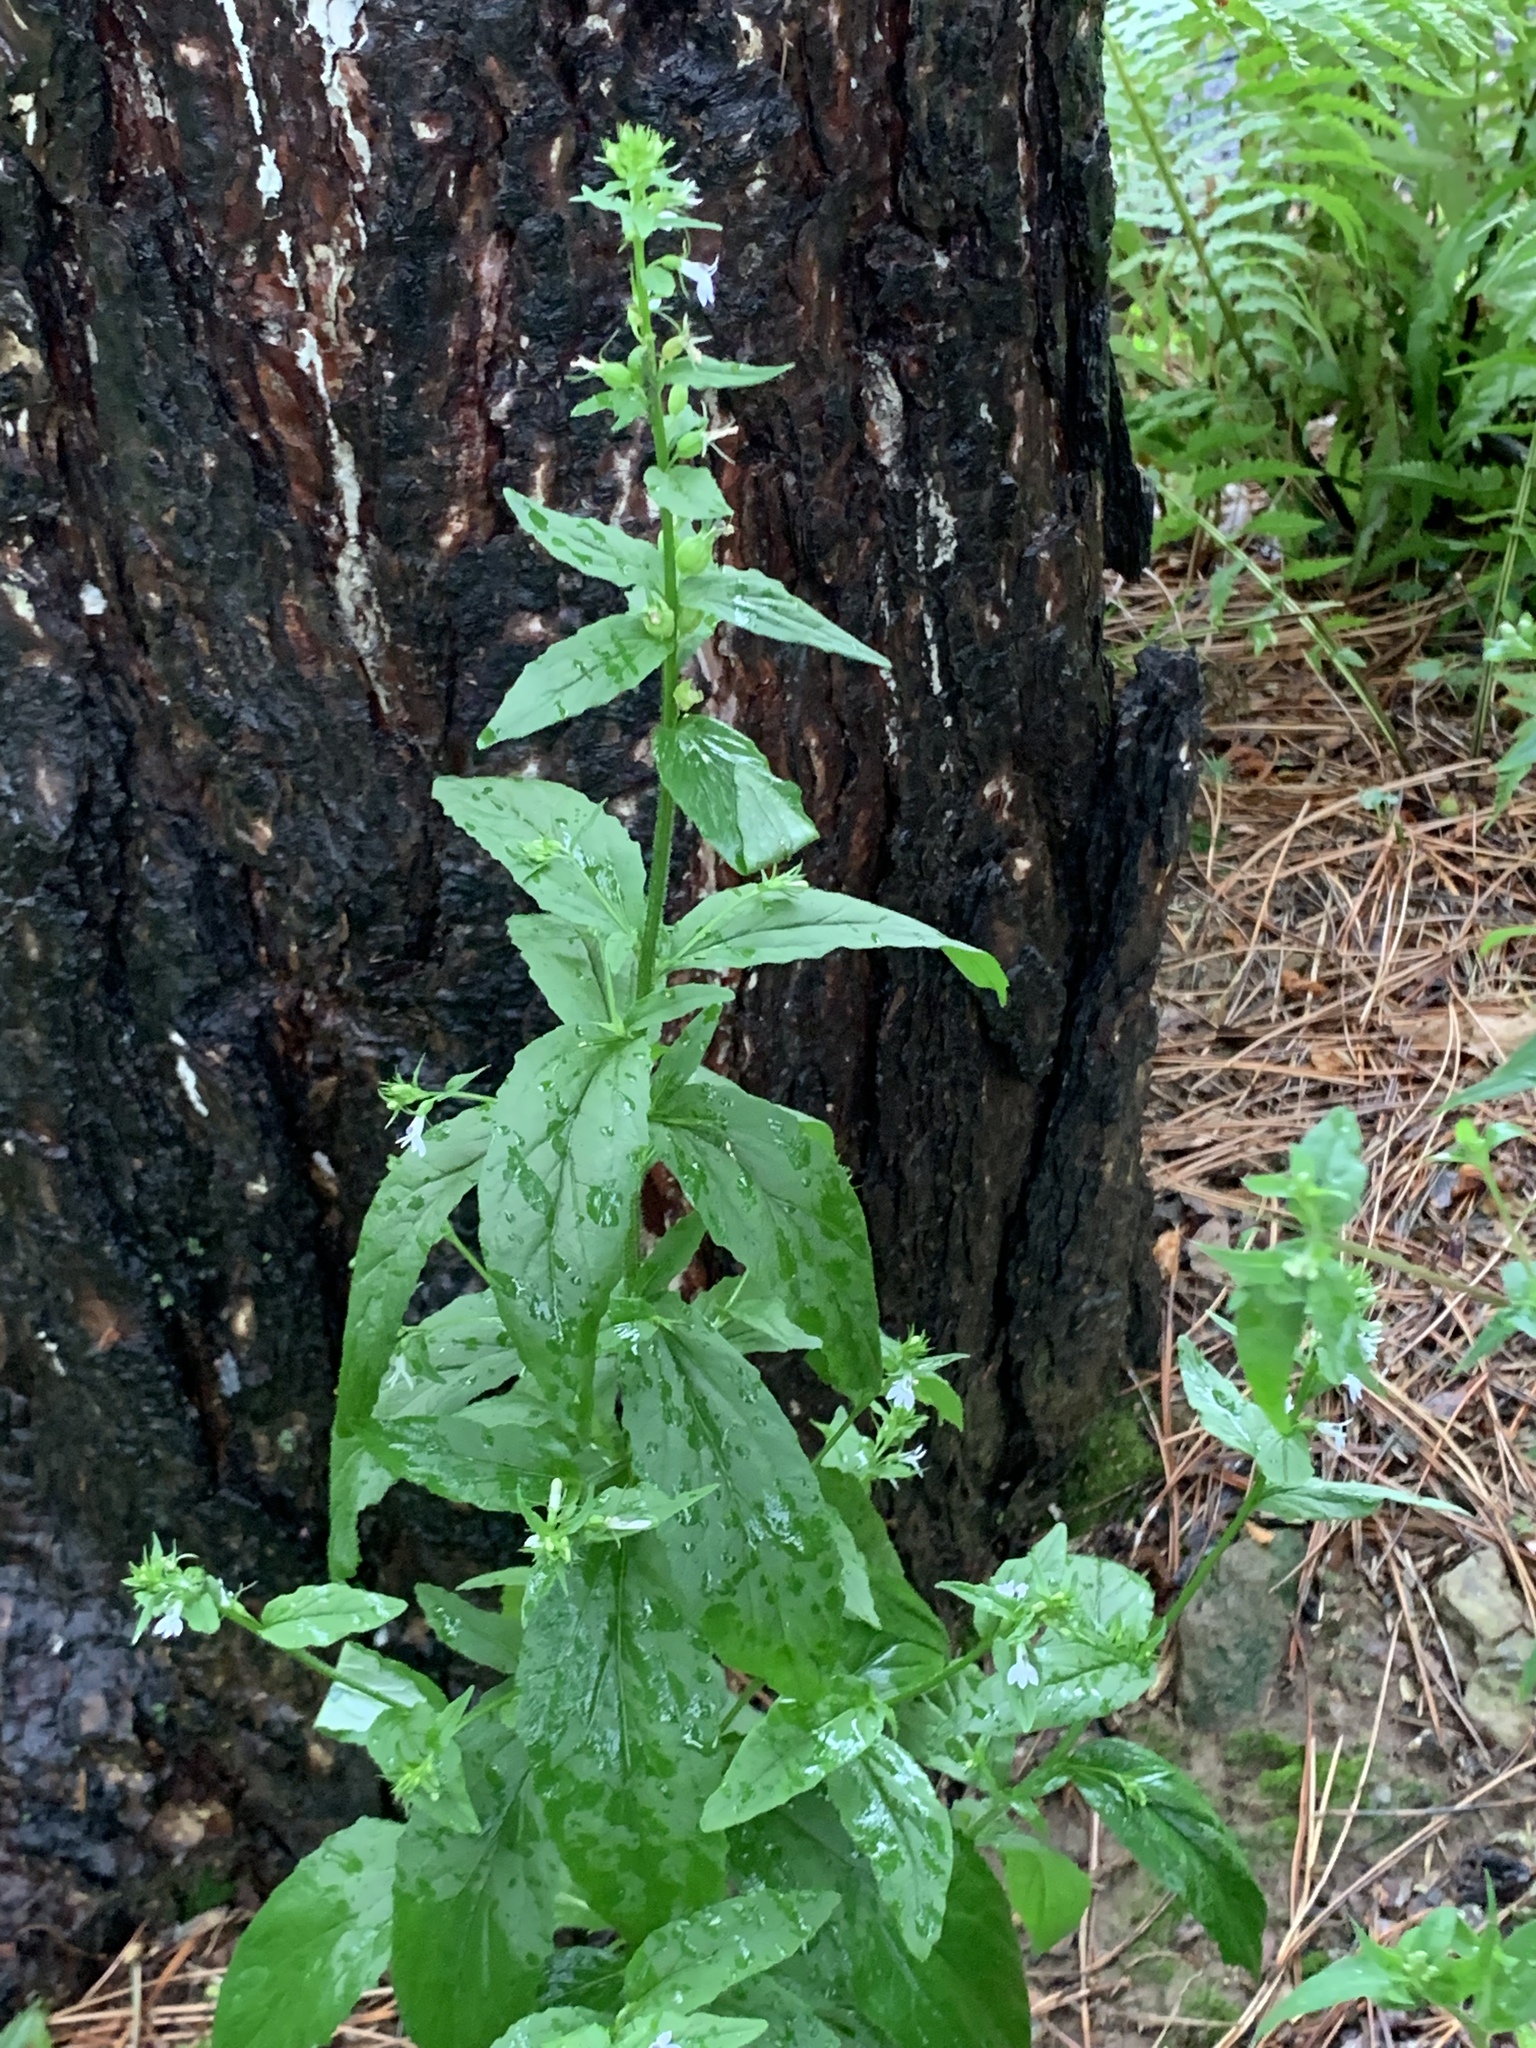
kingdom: Plantae
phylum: Tracheophyta
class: Magnoliopsida
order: Asterales
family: Campanulaceae
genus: Lobelia
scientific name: Lobelia inflata
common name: Indian tobacco
